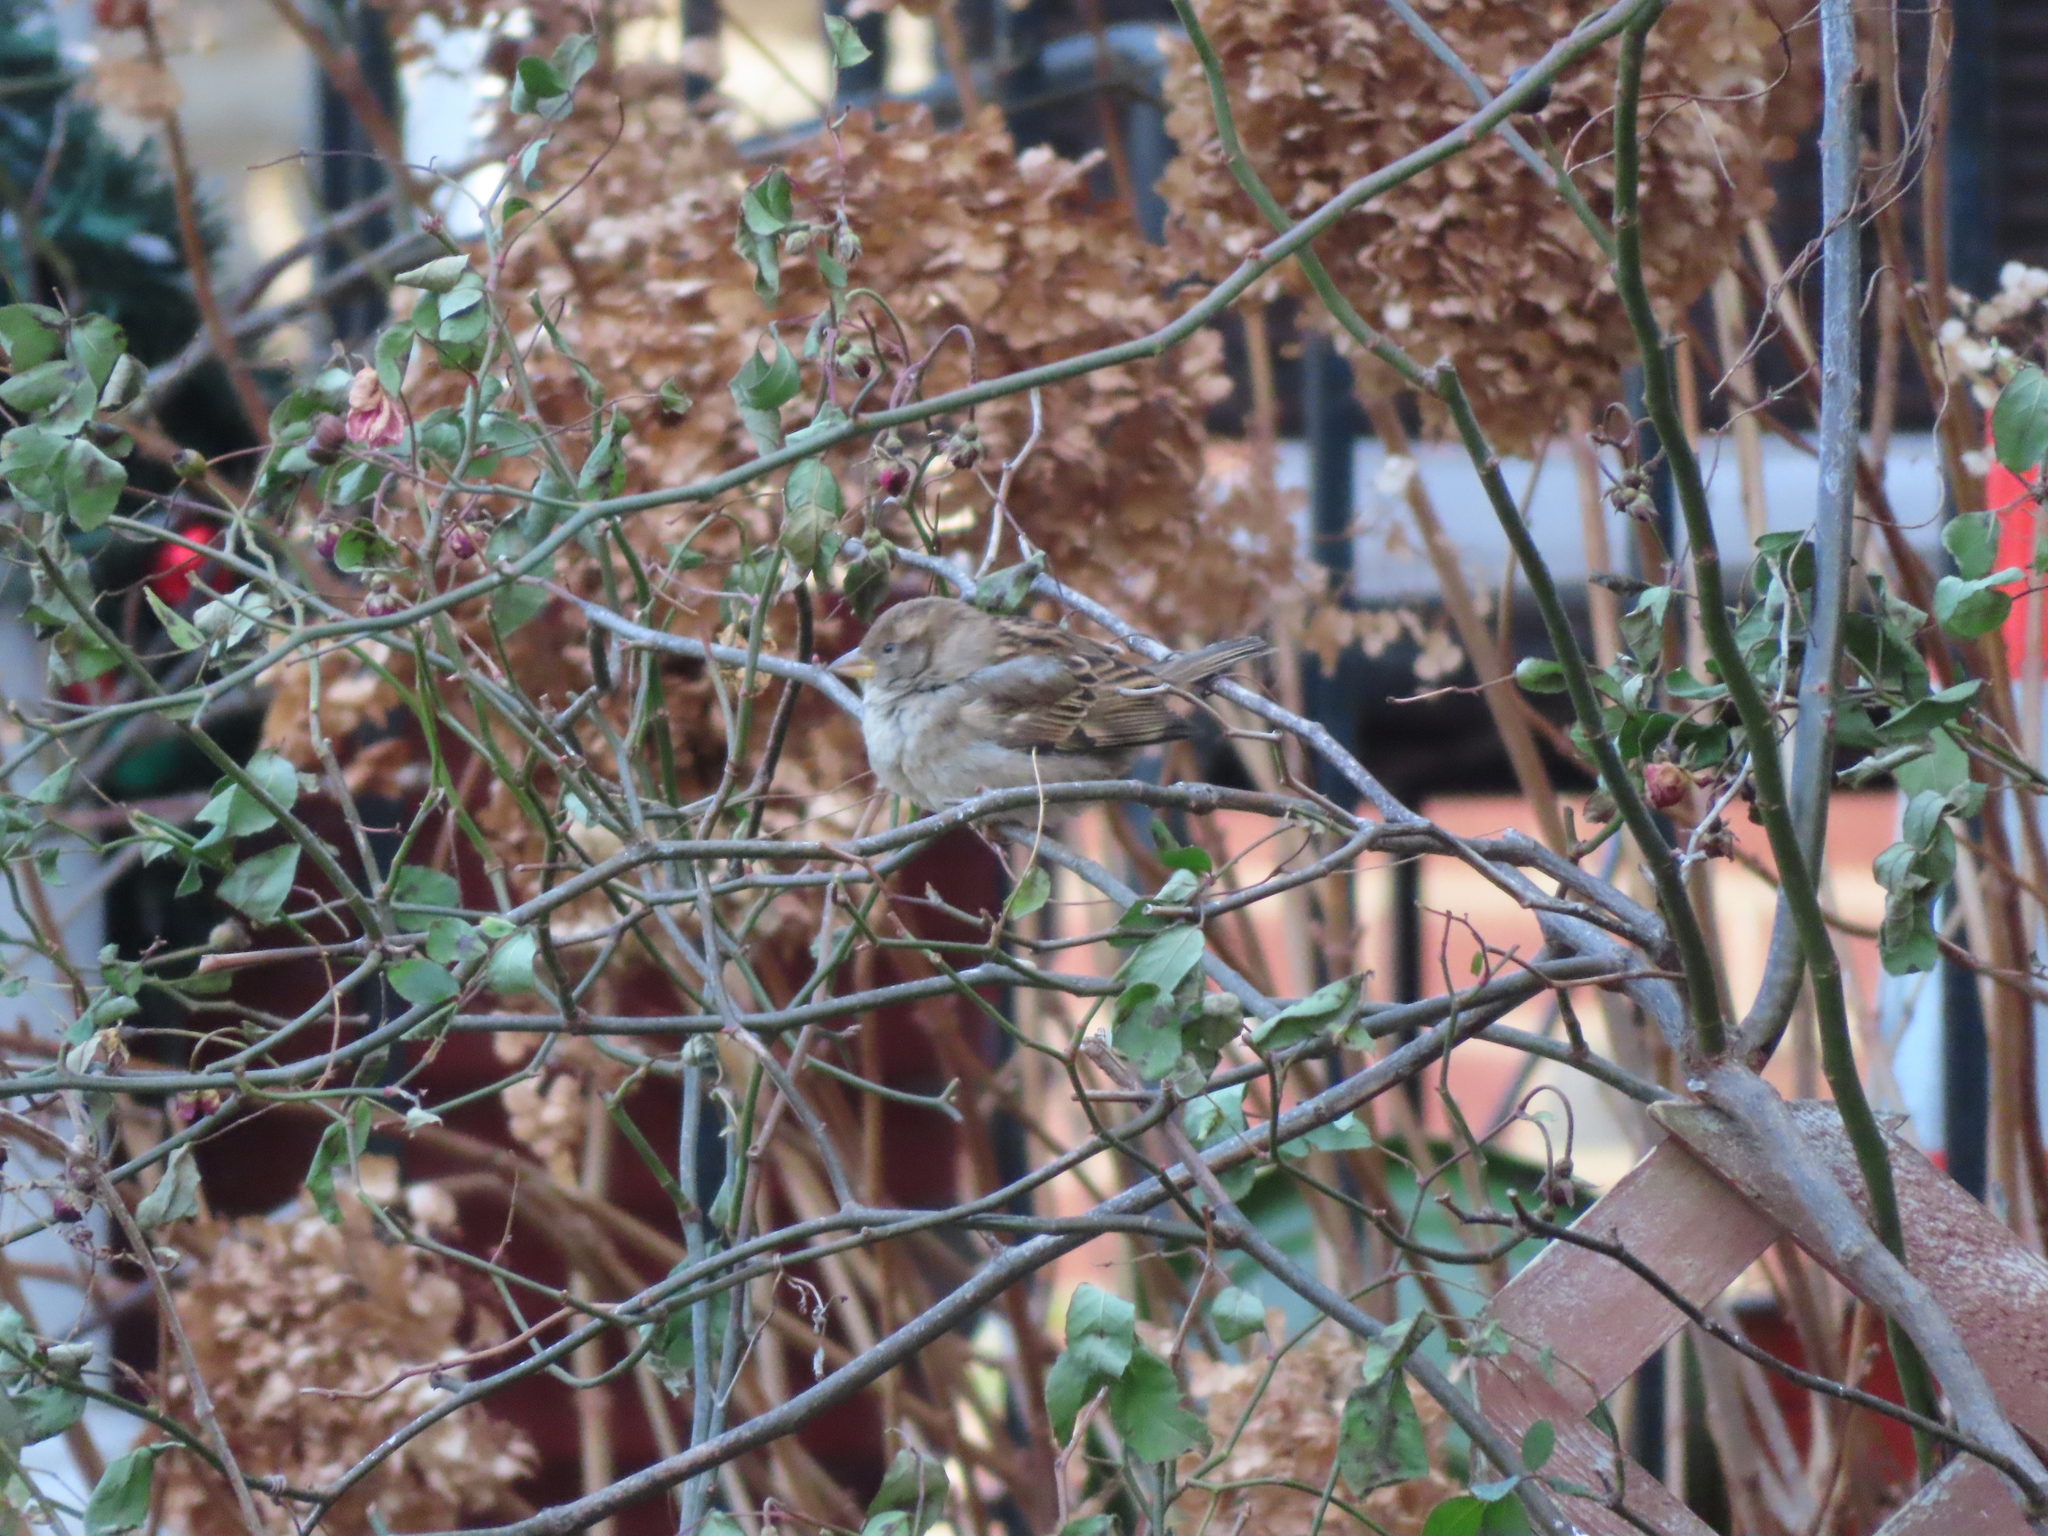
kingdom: Animalia
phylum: Chordata
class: Aves
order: Passeriformes
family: Passeridae
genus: Passer
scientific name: Passer domesticus
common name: House sparrow
